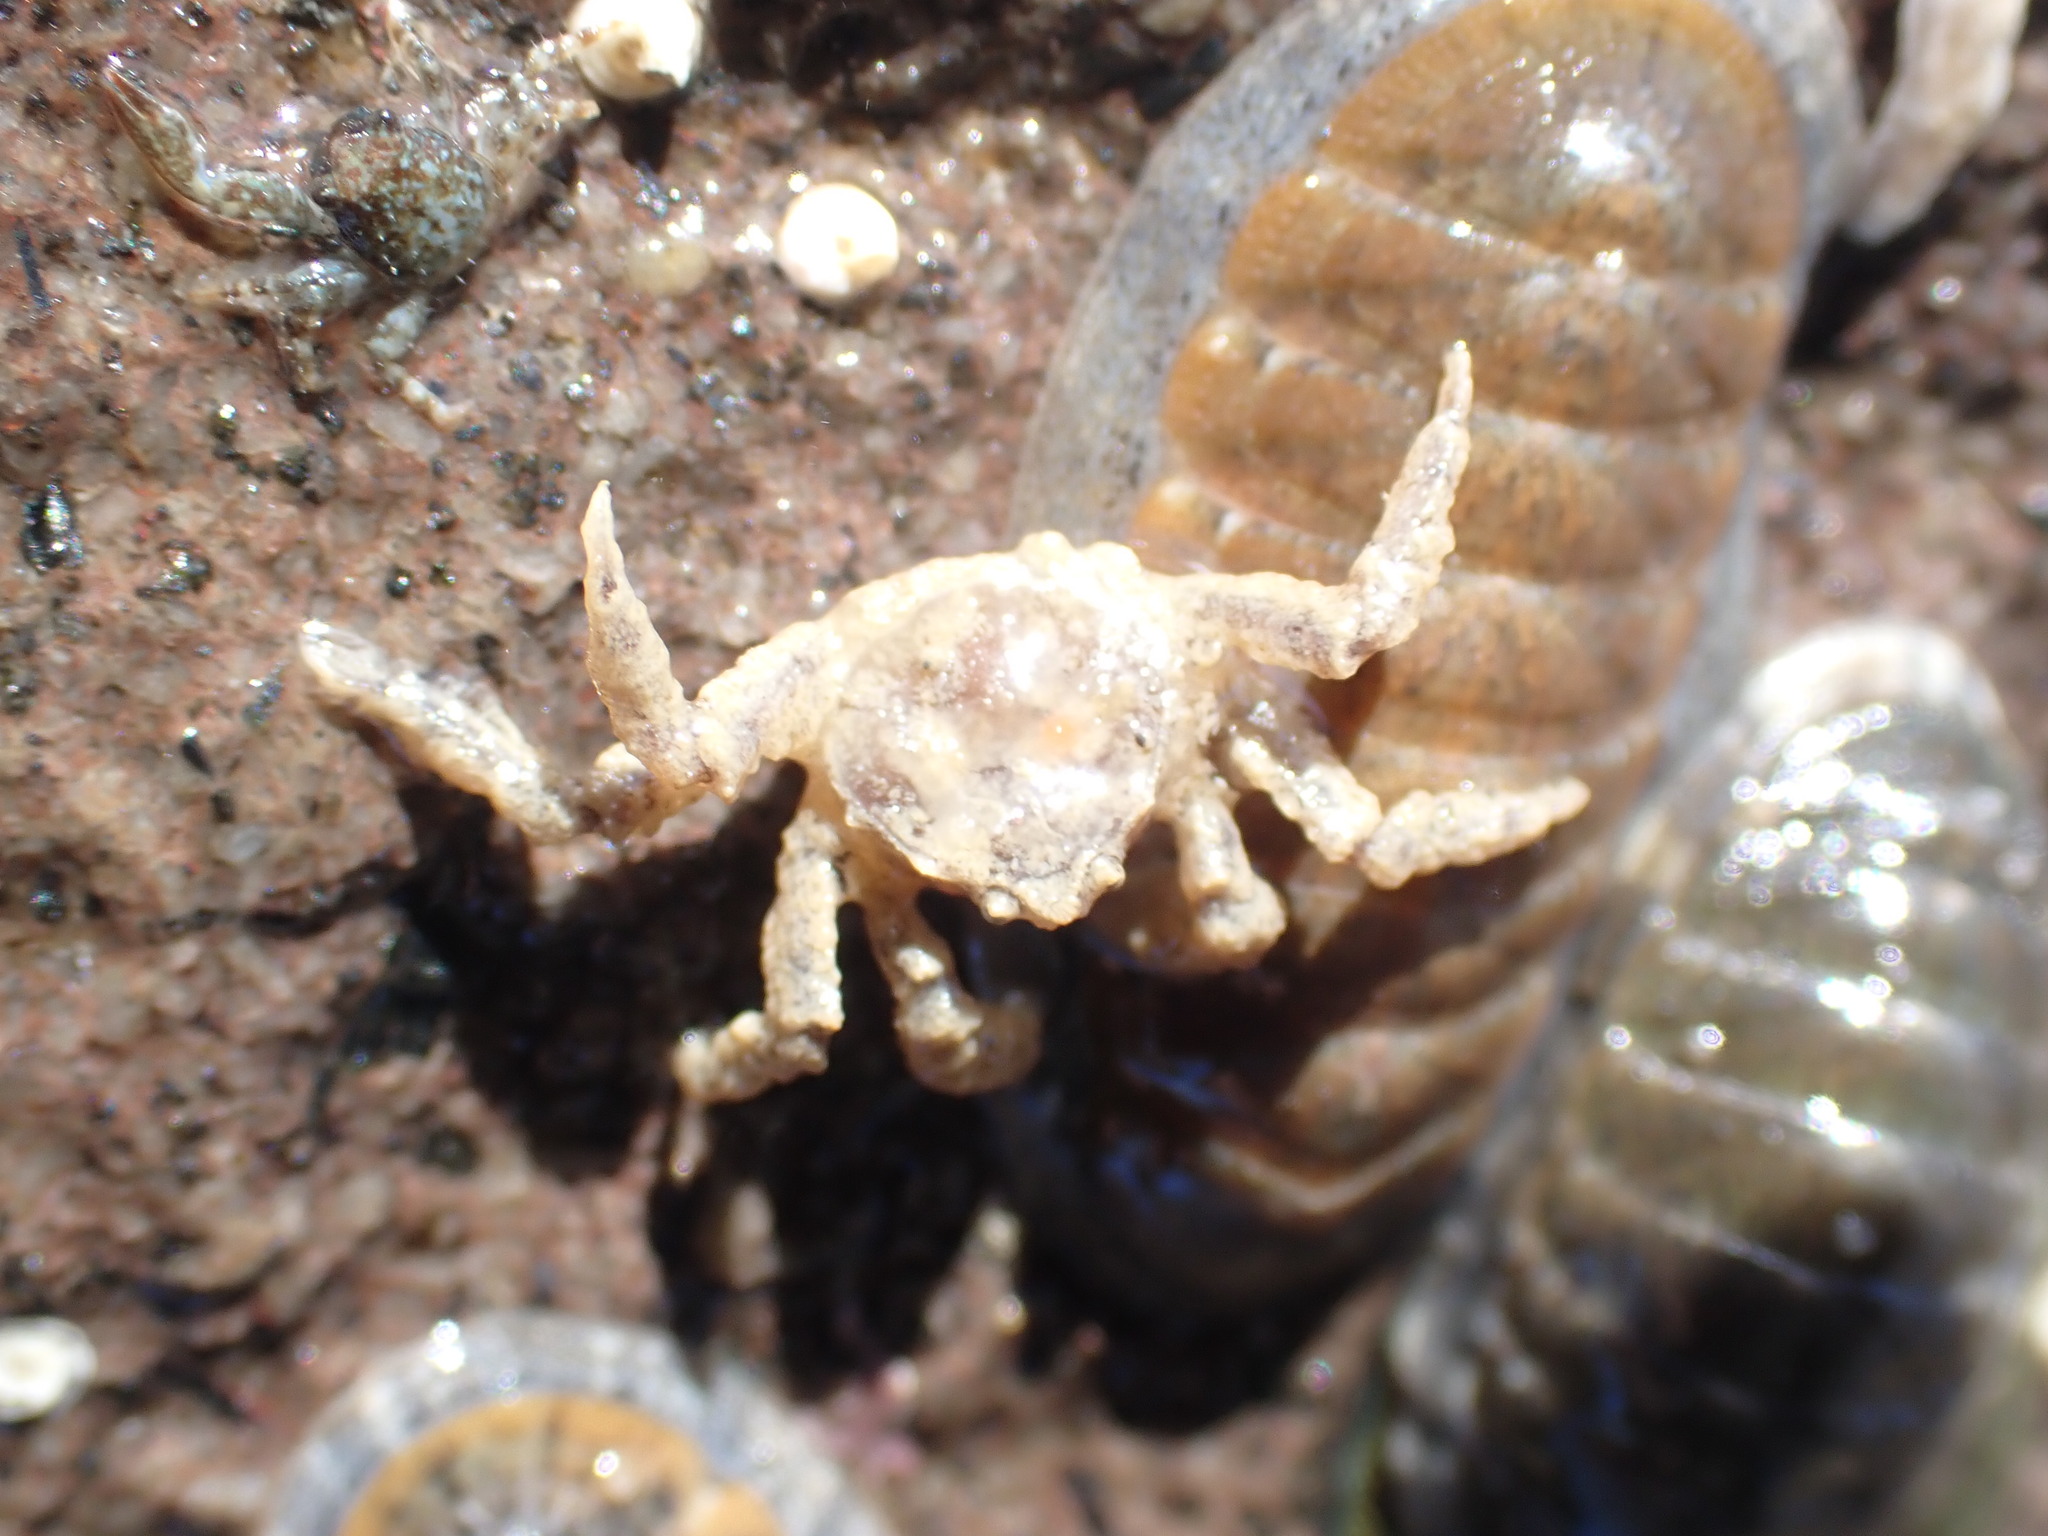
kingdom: Animalia
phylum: Arthropoda
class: Malacostraca
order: Decapoda
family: Hymenosomatidae
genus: Neohymenicus
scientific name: Neohymenicus pubescens
